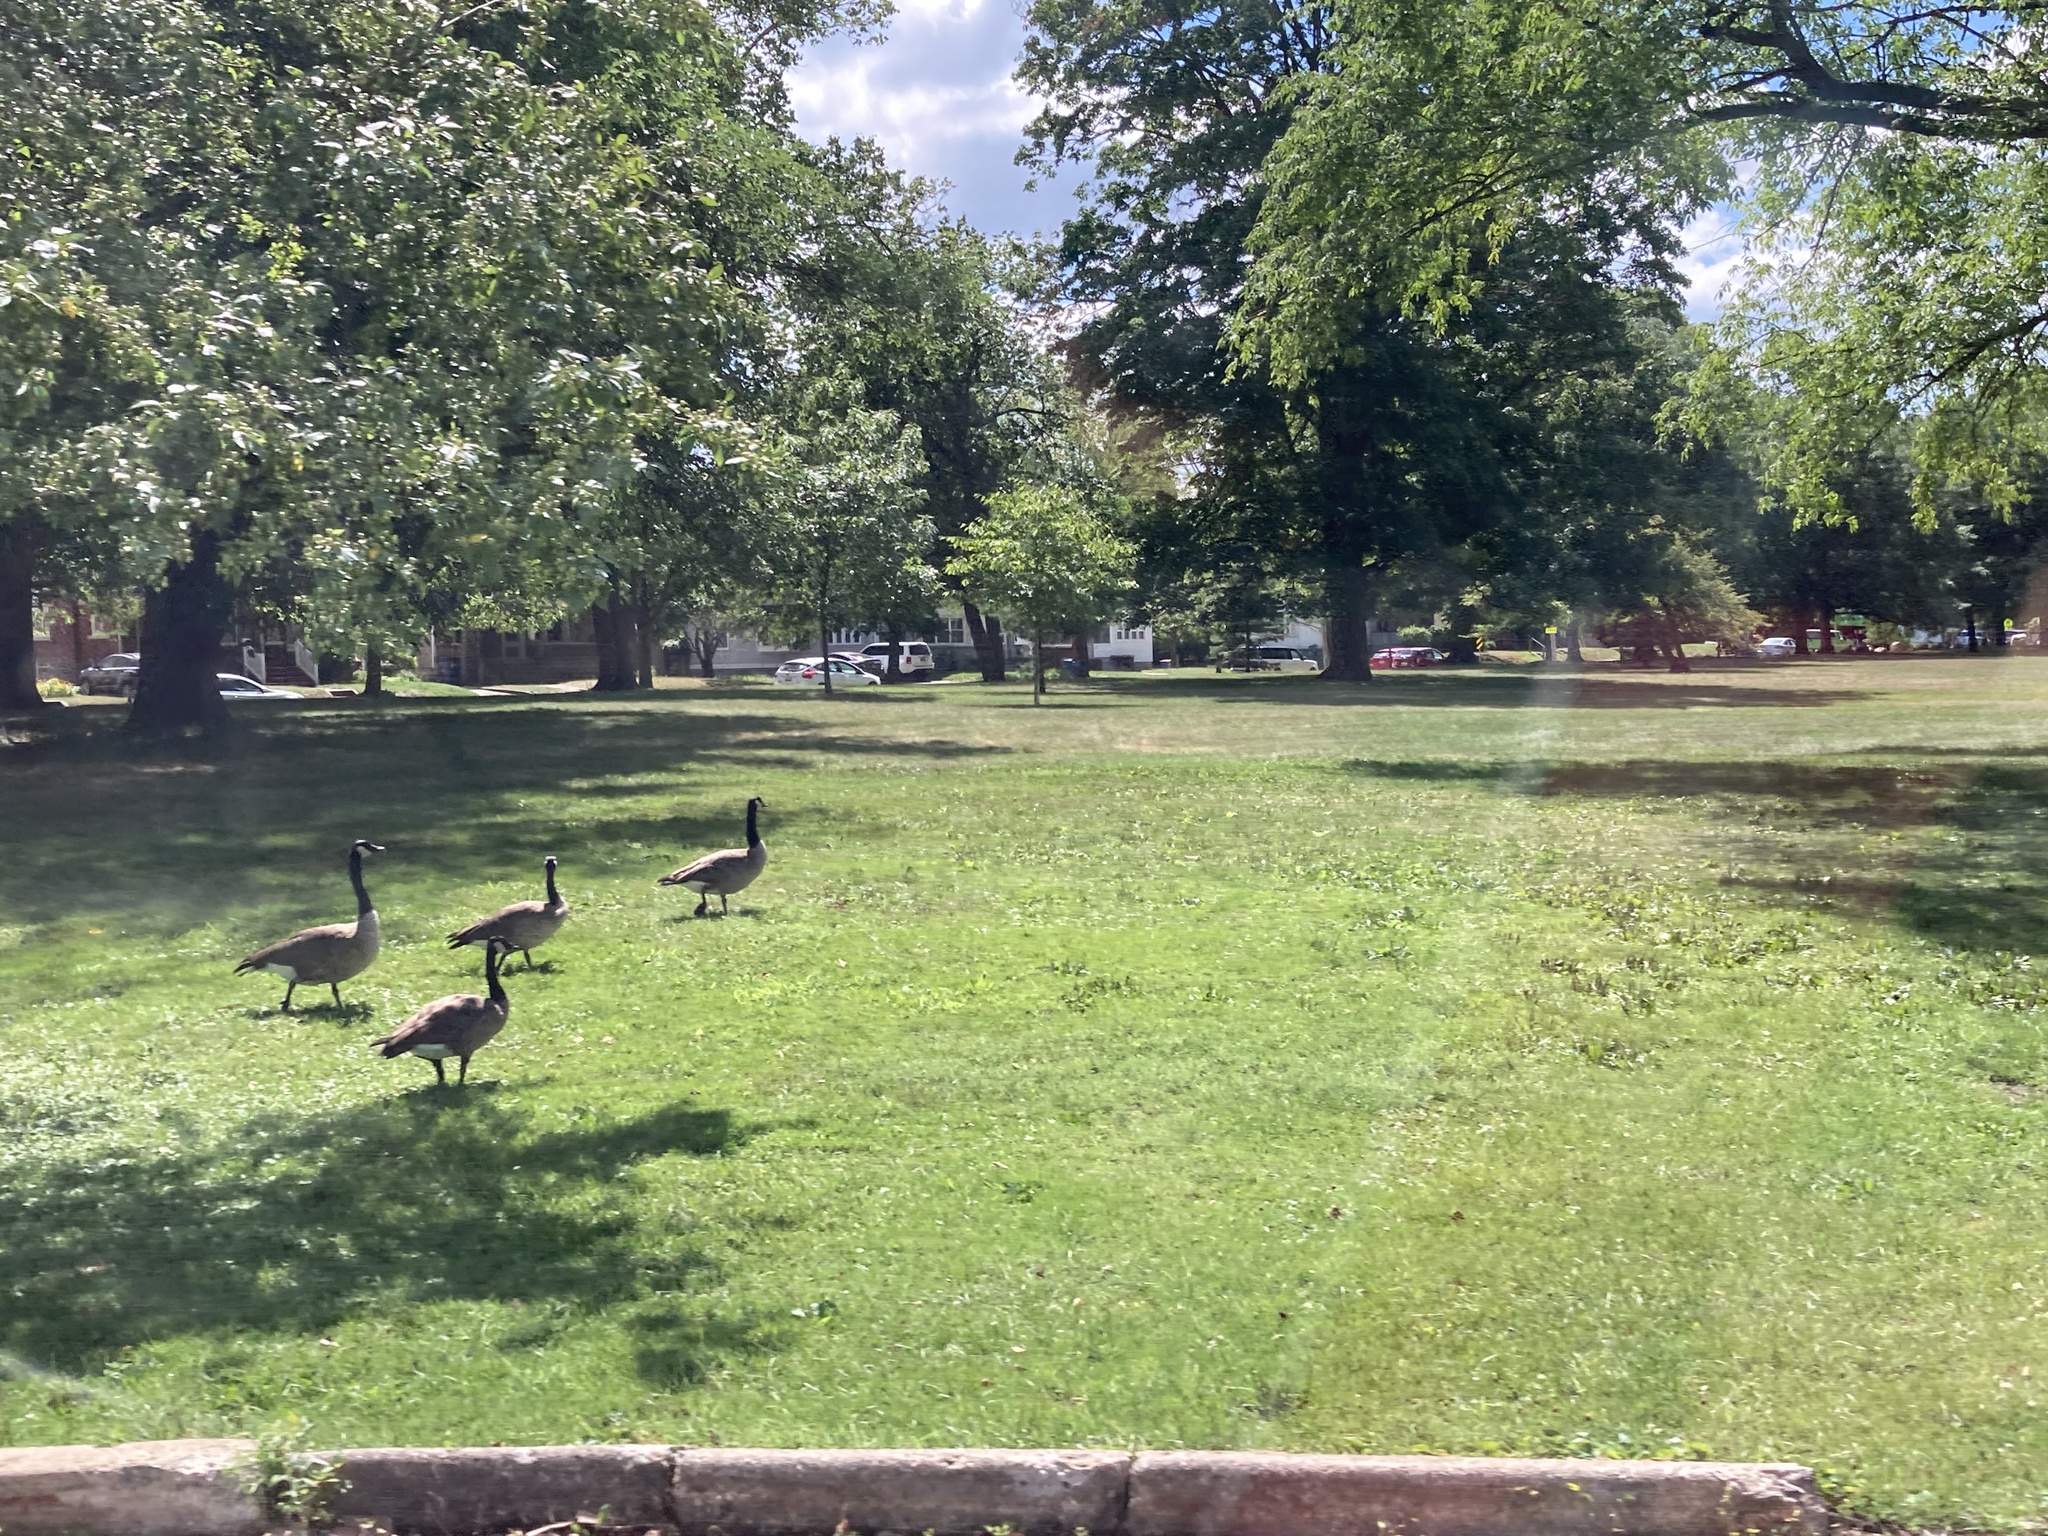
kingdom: Animalia
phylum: Chordata
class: Aves
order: Anseriformes
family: Anatidae
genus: Branta
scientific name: Branta canadensis
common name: Canada goose
